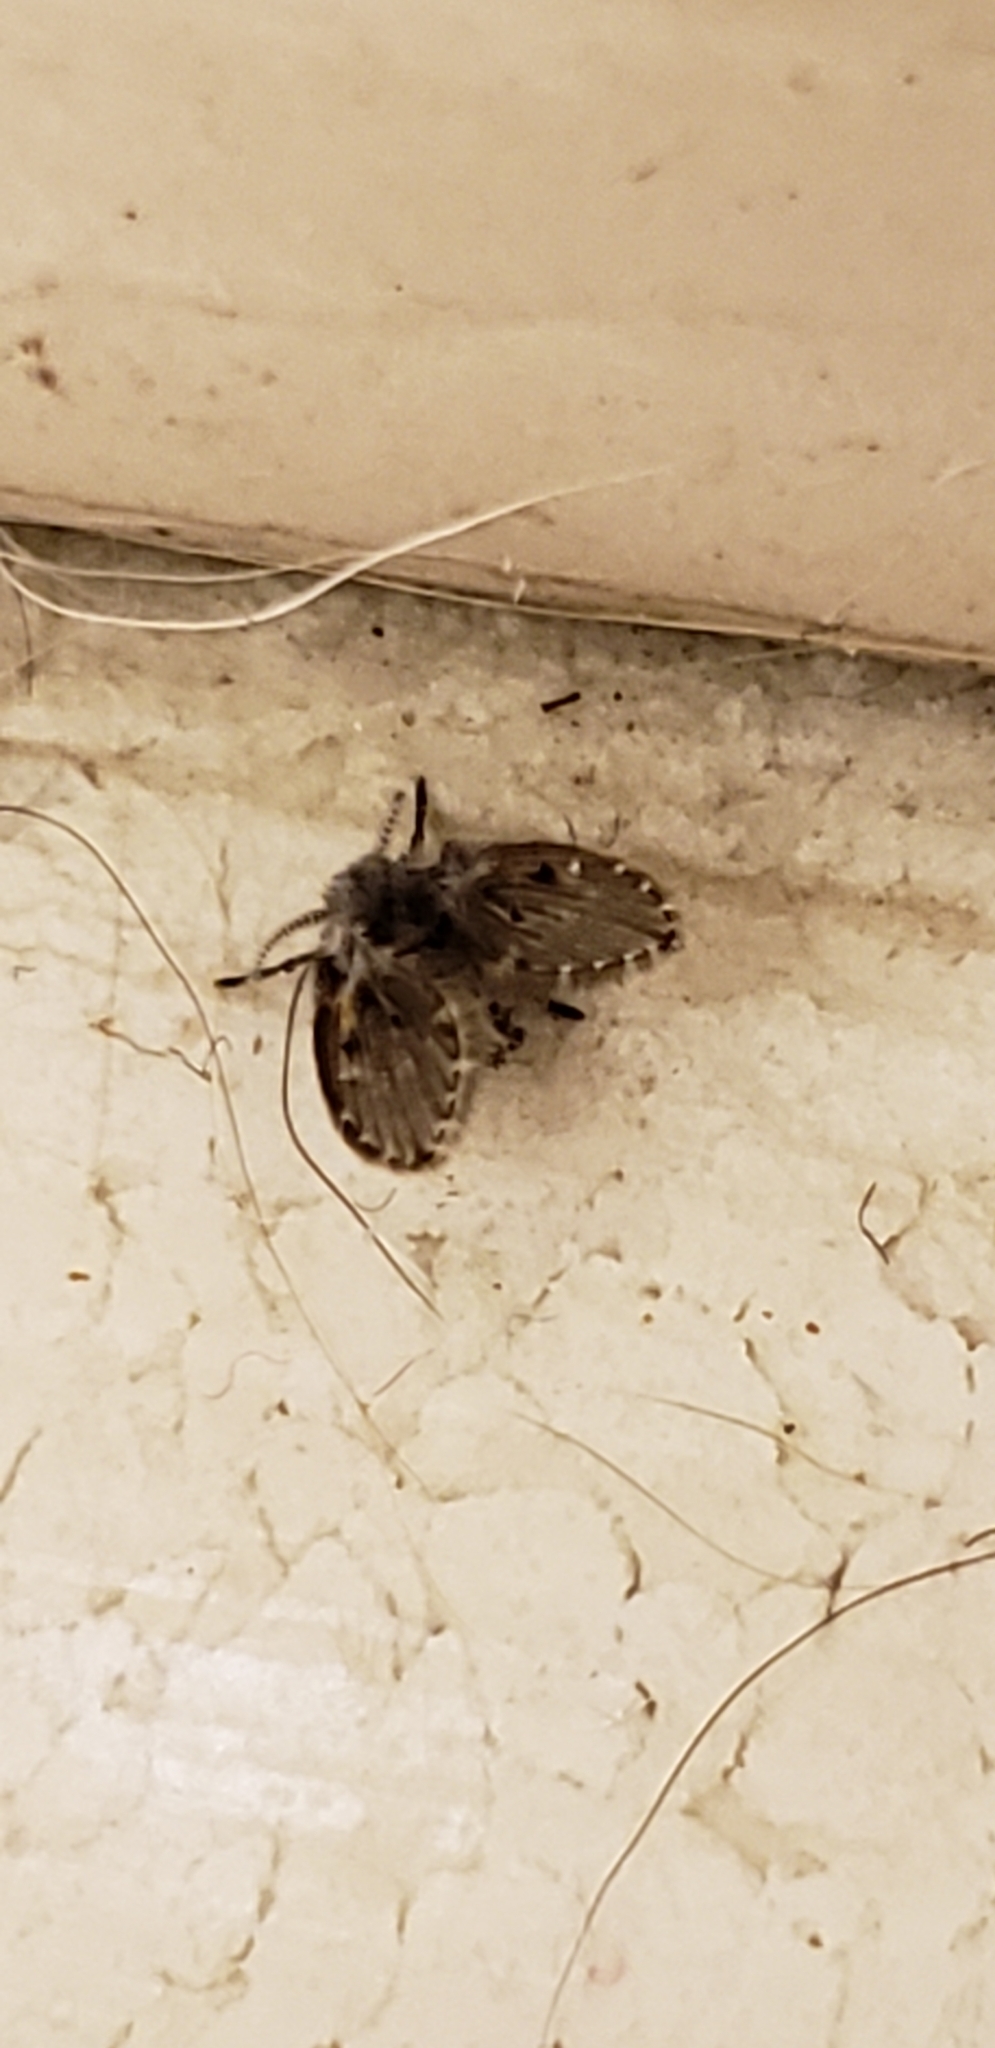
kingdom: Animalia
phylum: Arthropoda
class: Insecta
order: Diptera
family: Psychodidae
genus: Clogmia
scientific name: Clogmia albipunctatus
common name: White-spotted moth fly
